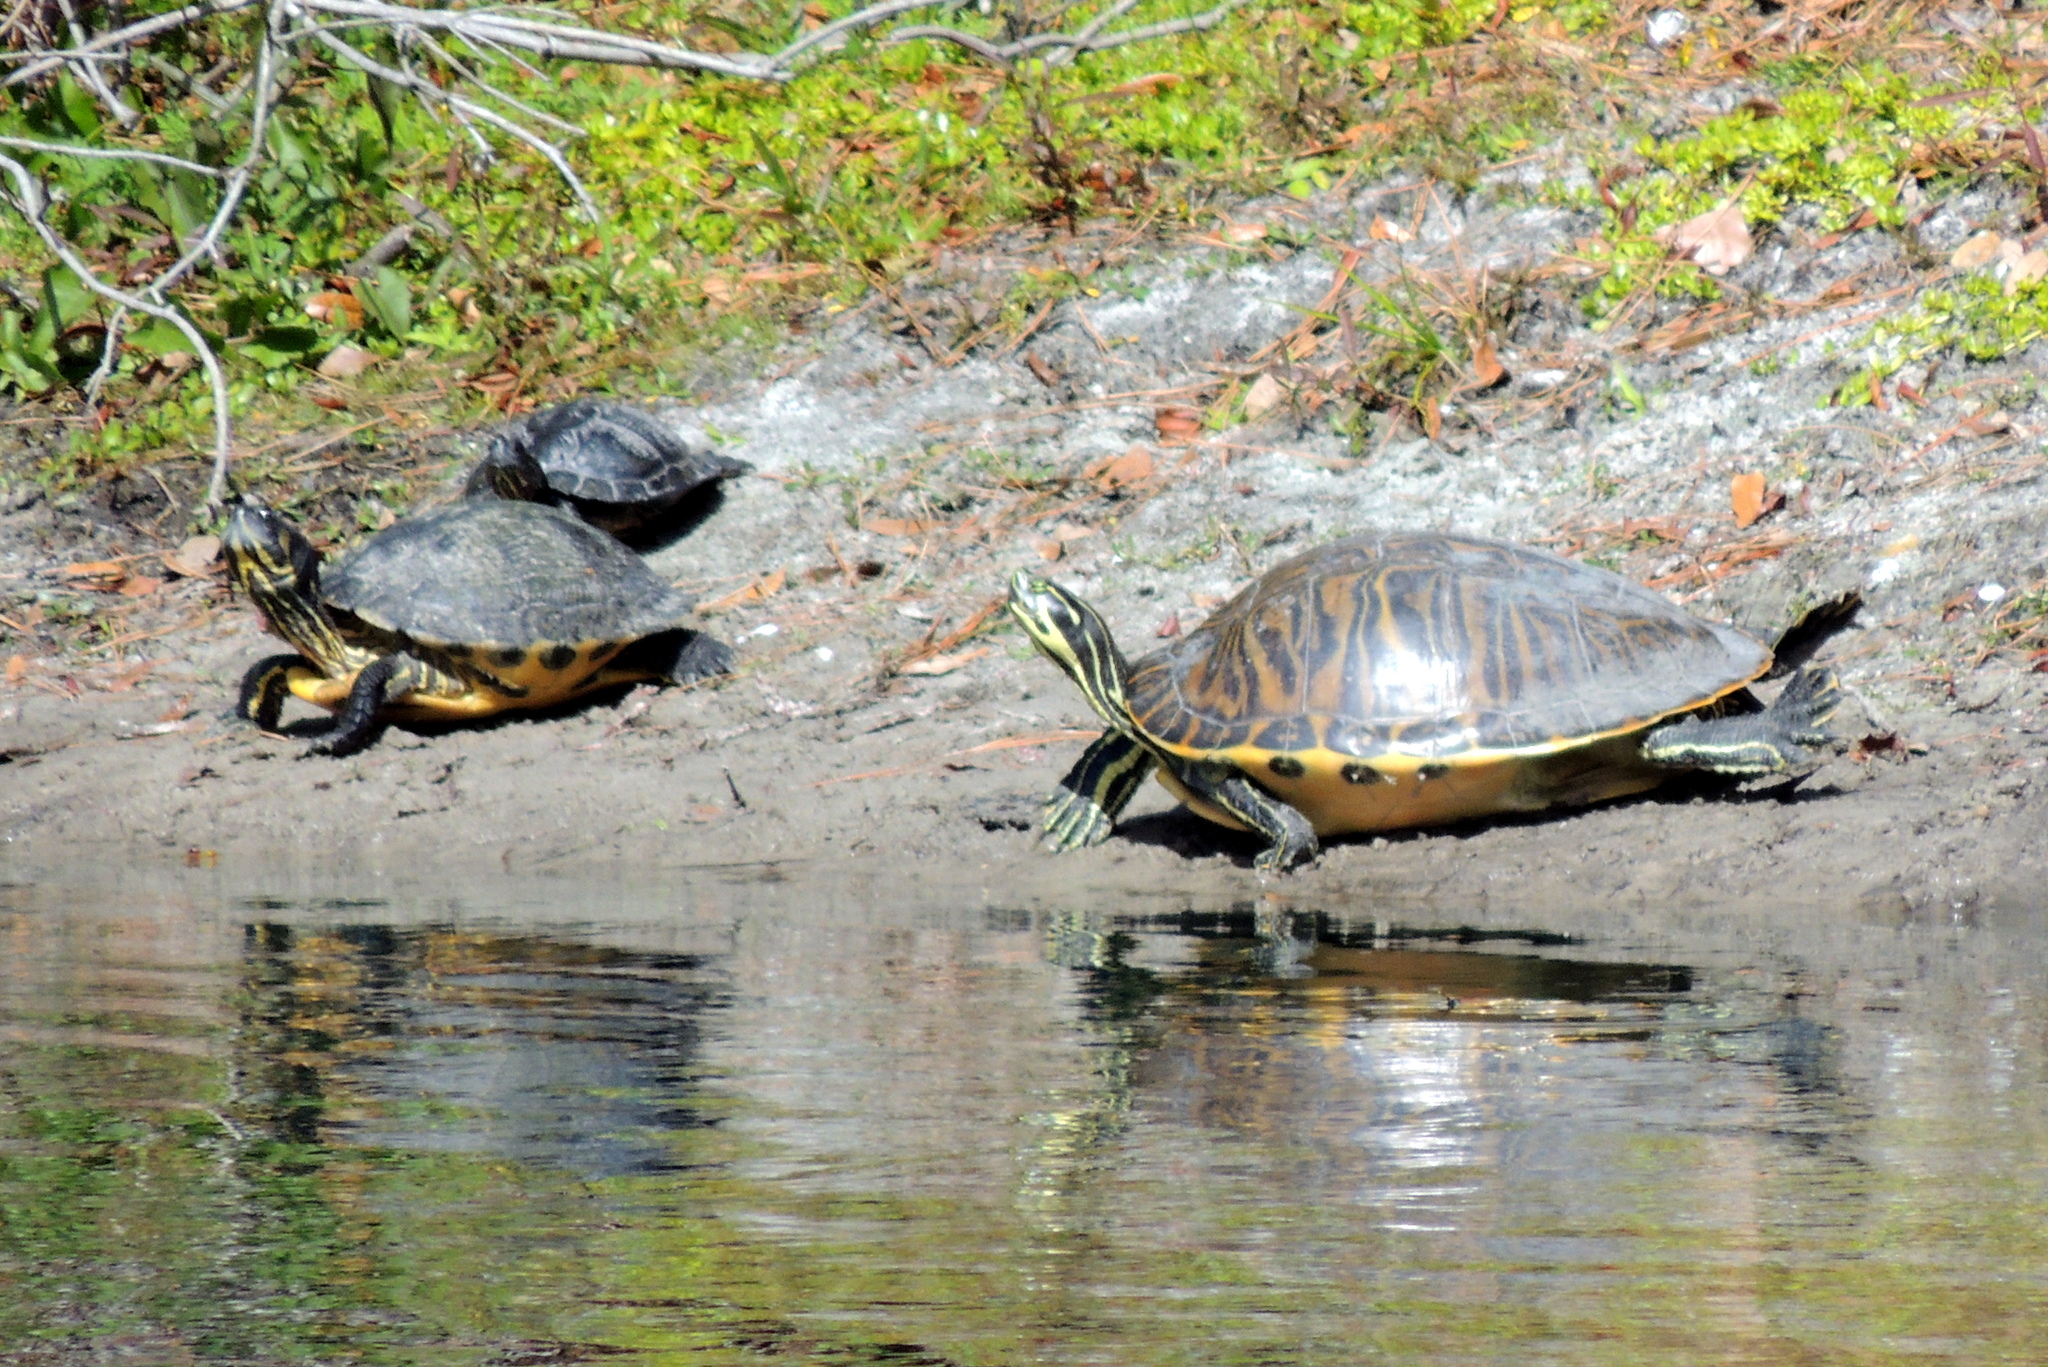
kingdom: Animalia
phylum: Chordata
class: Testudines
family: Emydidae
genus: Trachemys
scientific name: Trachemys scripta
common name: Slider
